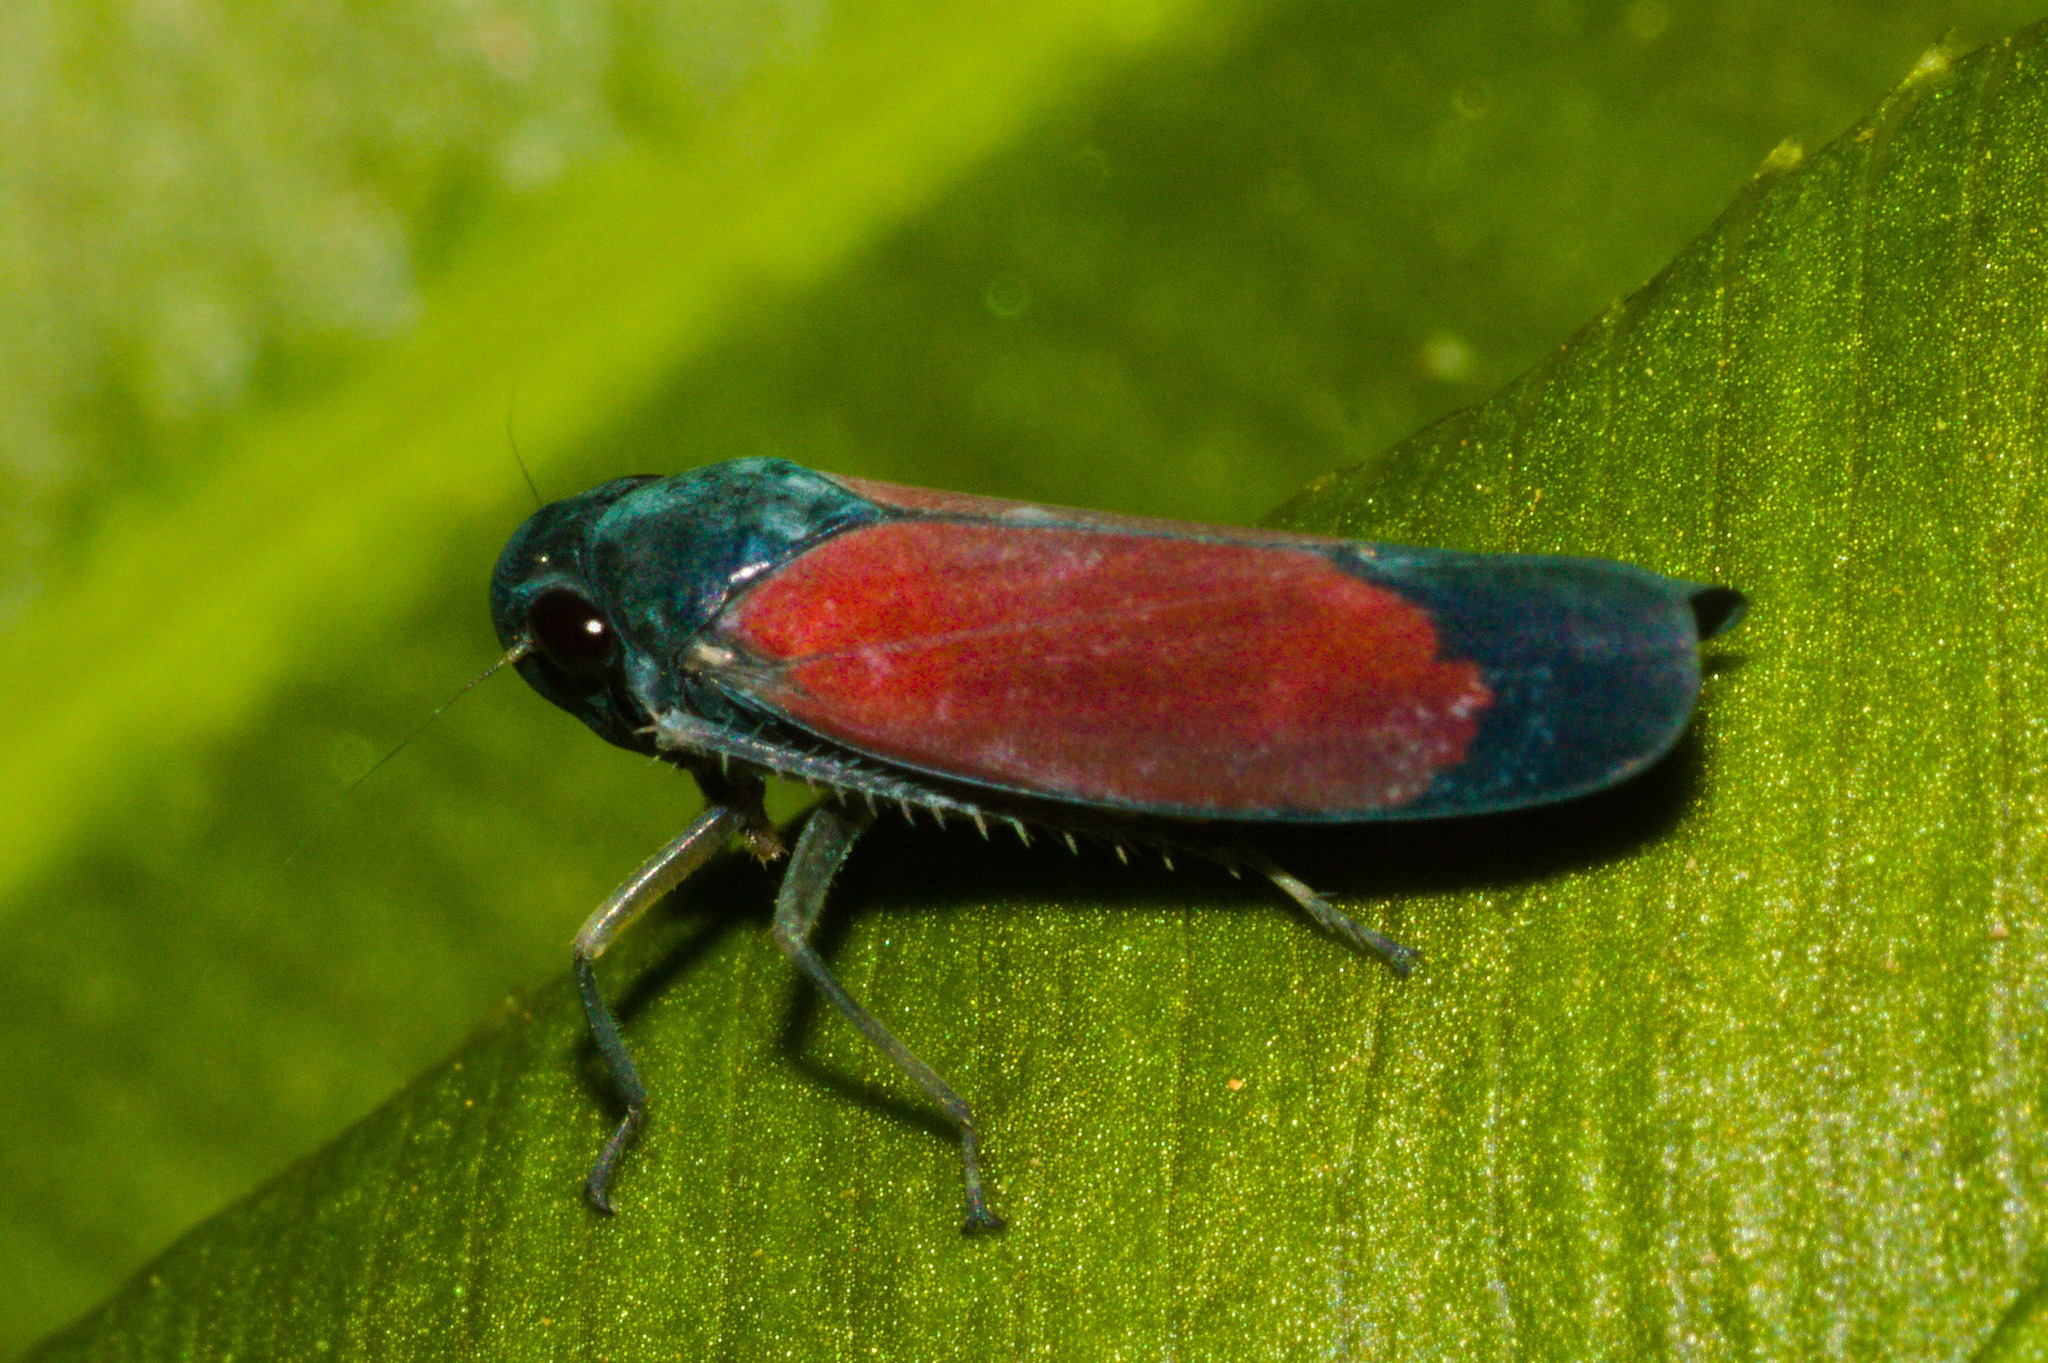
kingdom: Animalia
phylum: Arthropoda
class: Insecta
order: Hemiptera
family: Cicadellidae
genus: Cardioscarta
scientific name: Cardioscarta flavifrons
